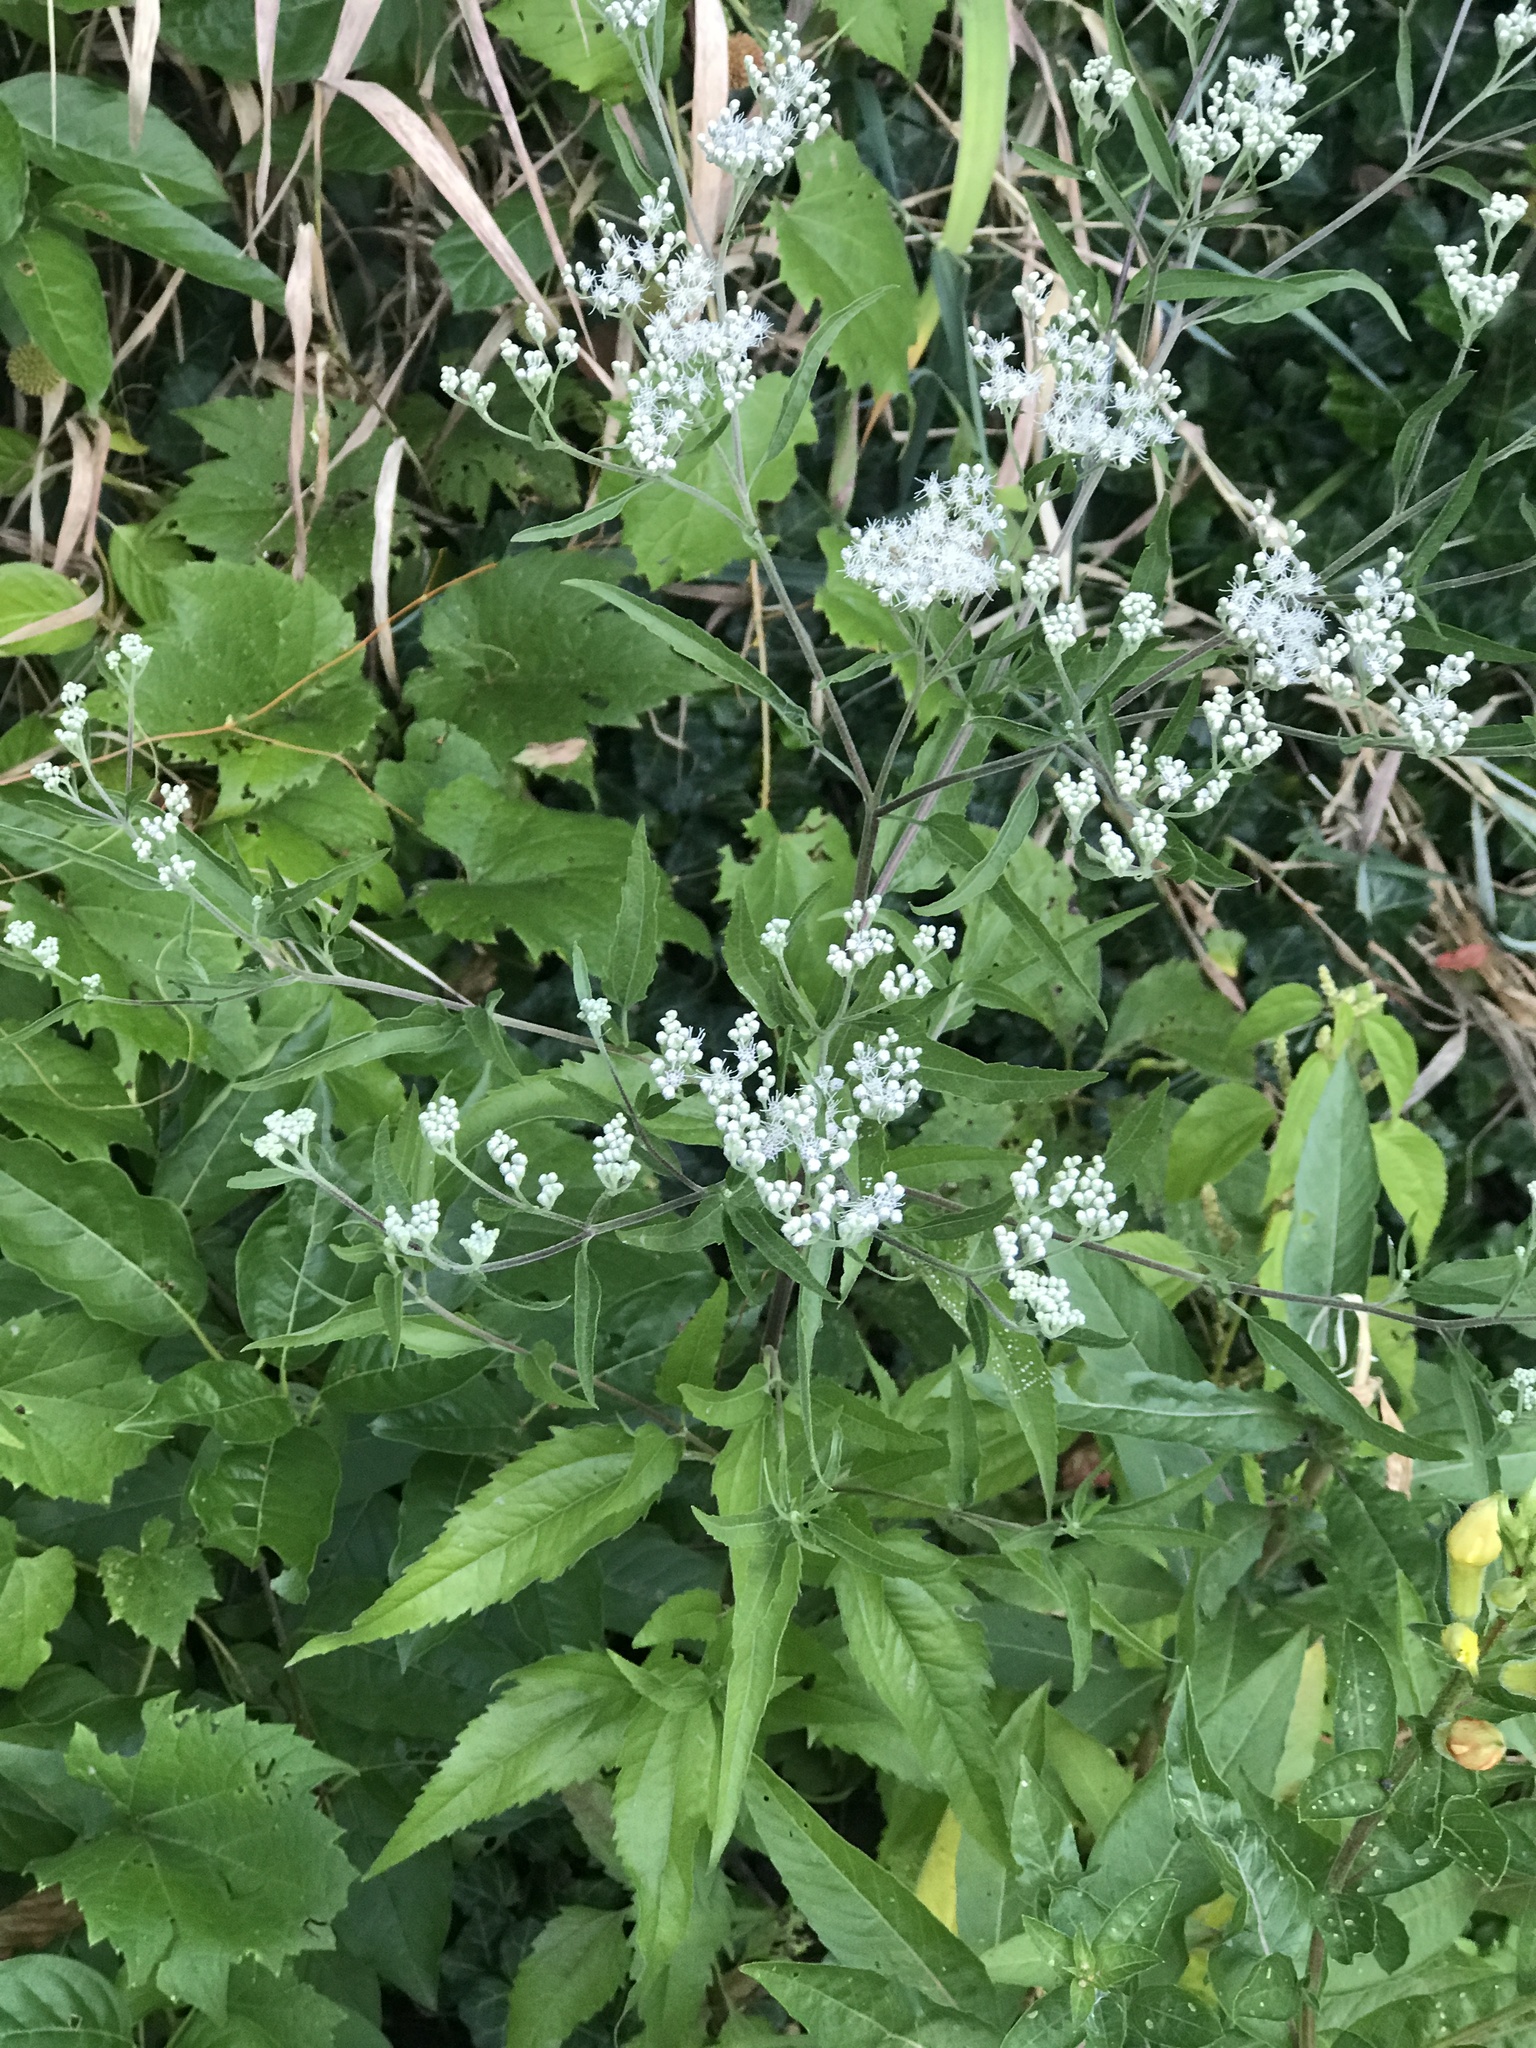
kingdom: Plantae
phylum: Tracheophyta
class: Magnoliopsida
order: Asterales
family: Asteraceae
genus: Eupatorium
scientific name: Eupatorium serotinum
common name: Late boneset
